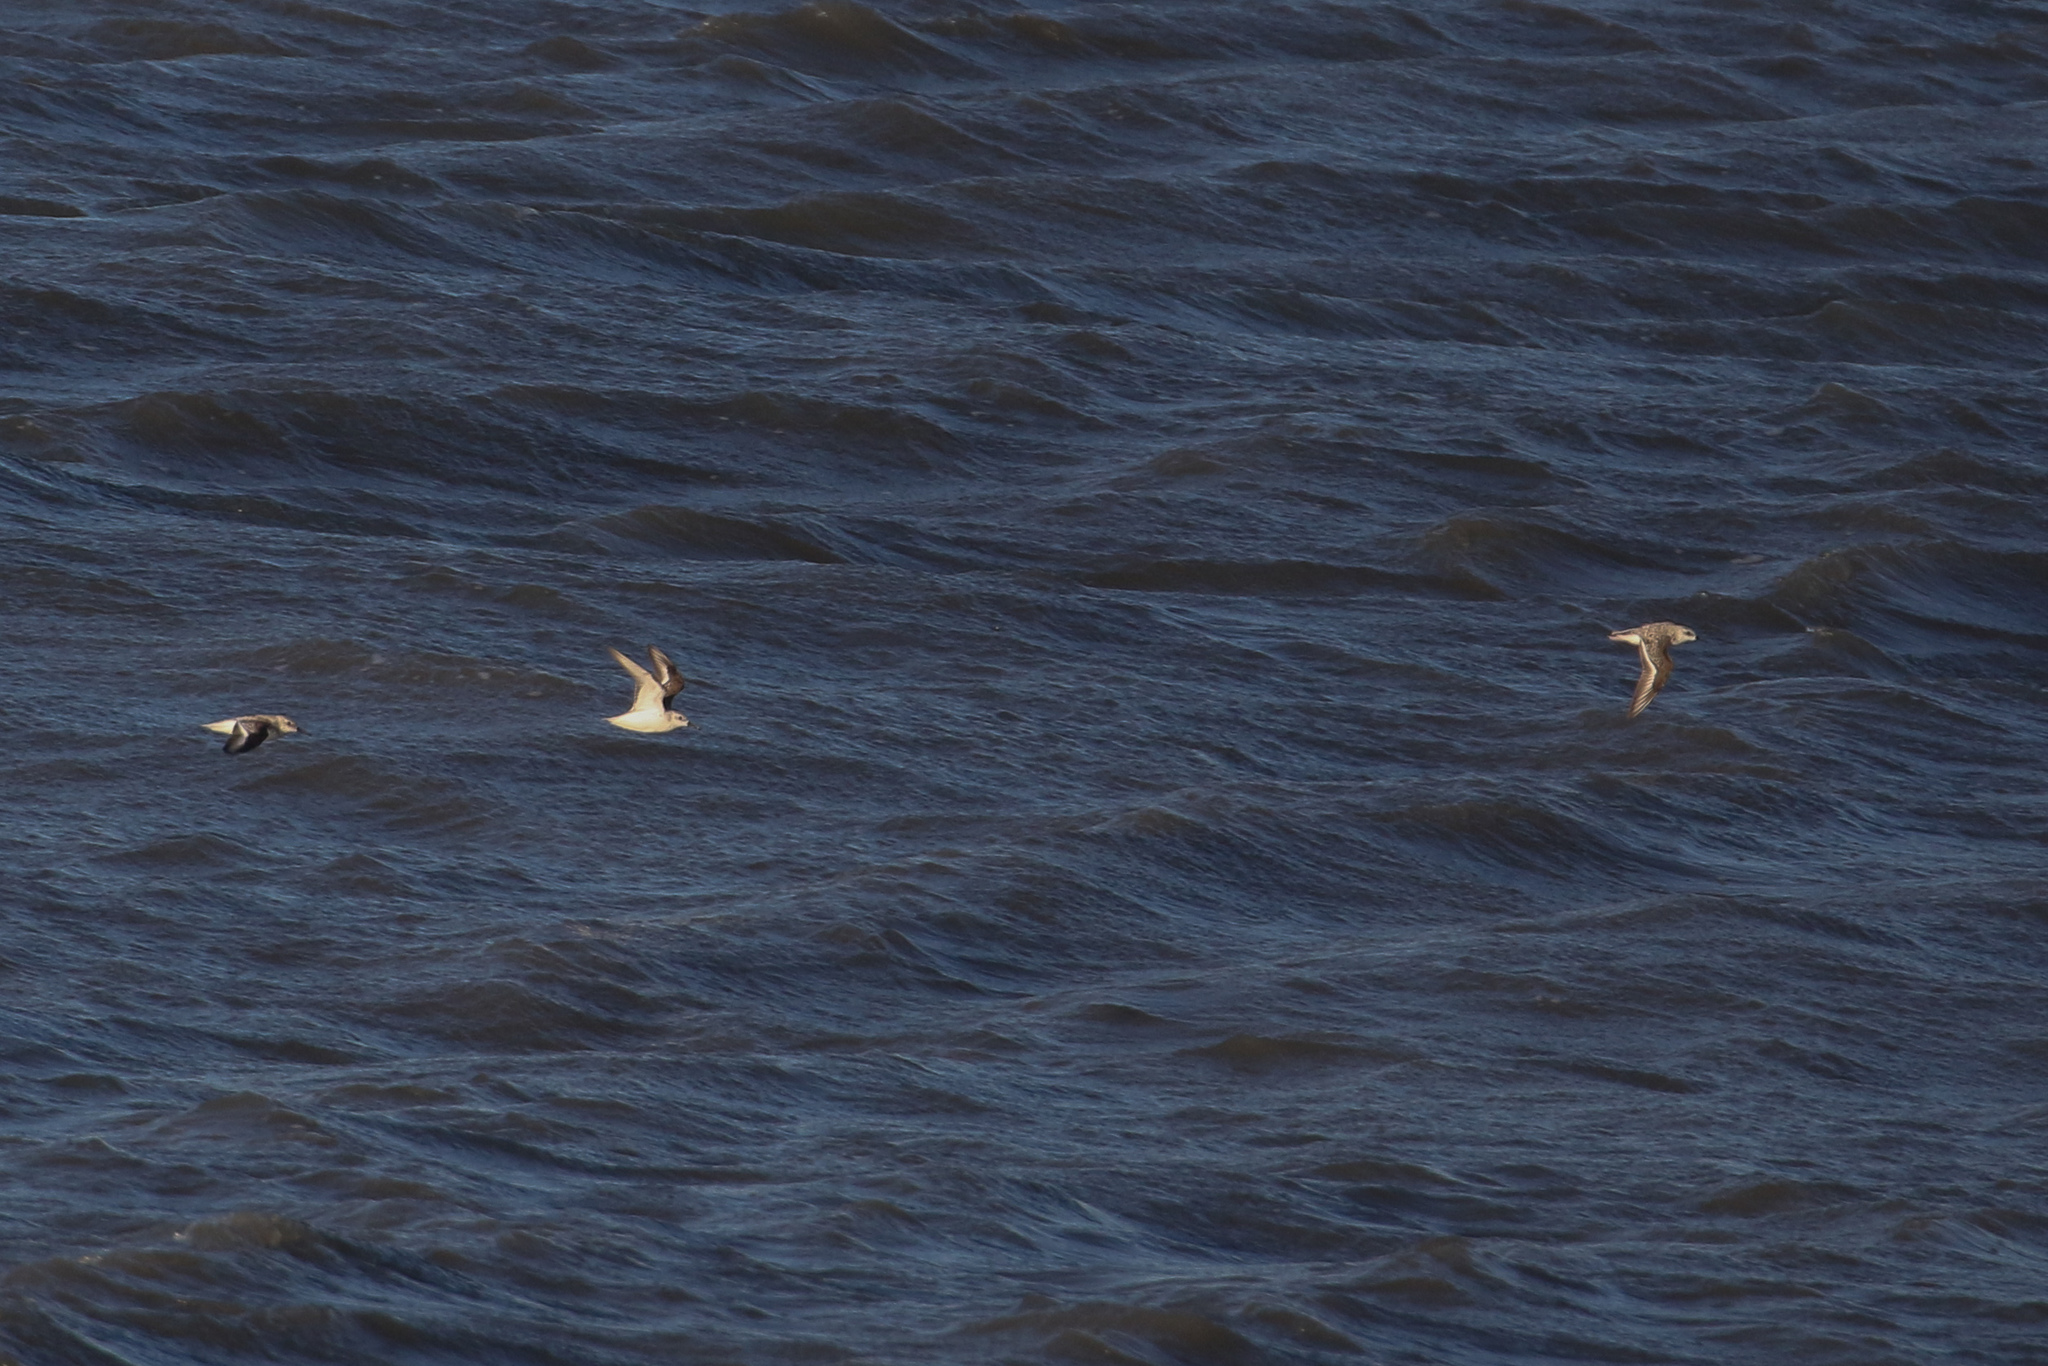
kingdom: Animalia
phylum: Chordata
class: Aves
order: Charadriiformes
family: Scolopacidae
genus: Calidris
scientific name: Calidris alba
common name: Sanderling
